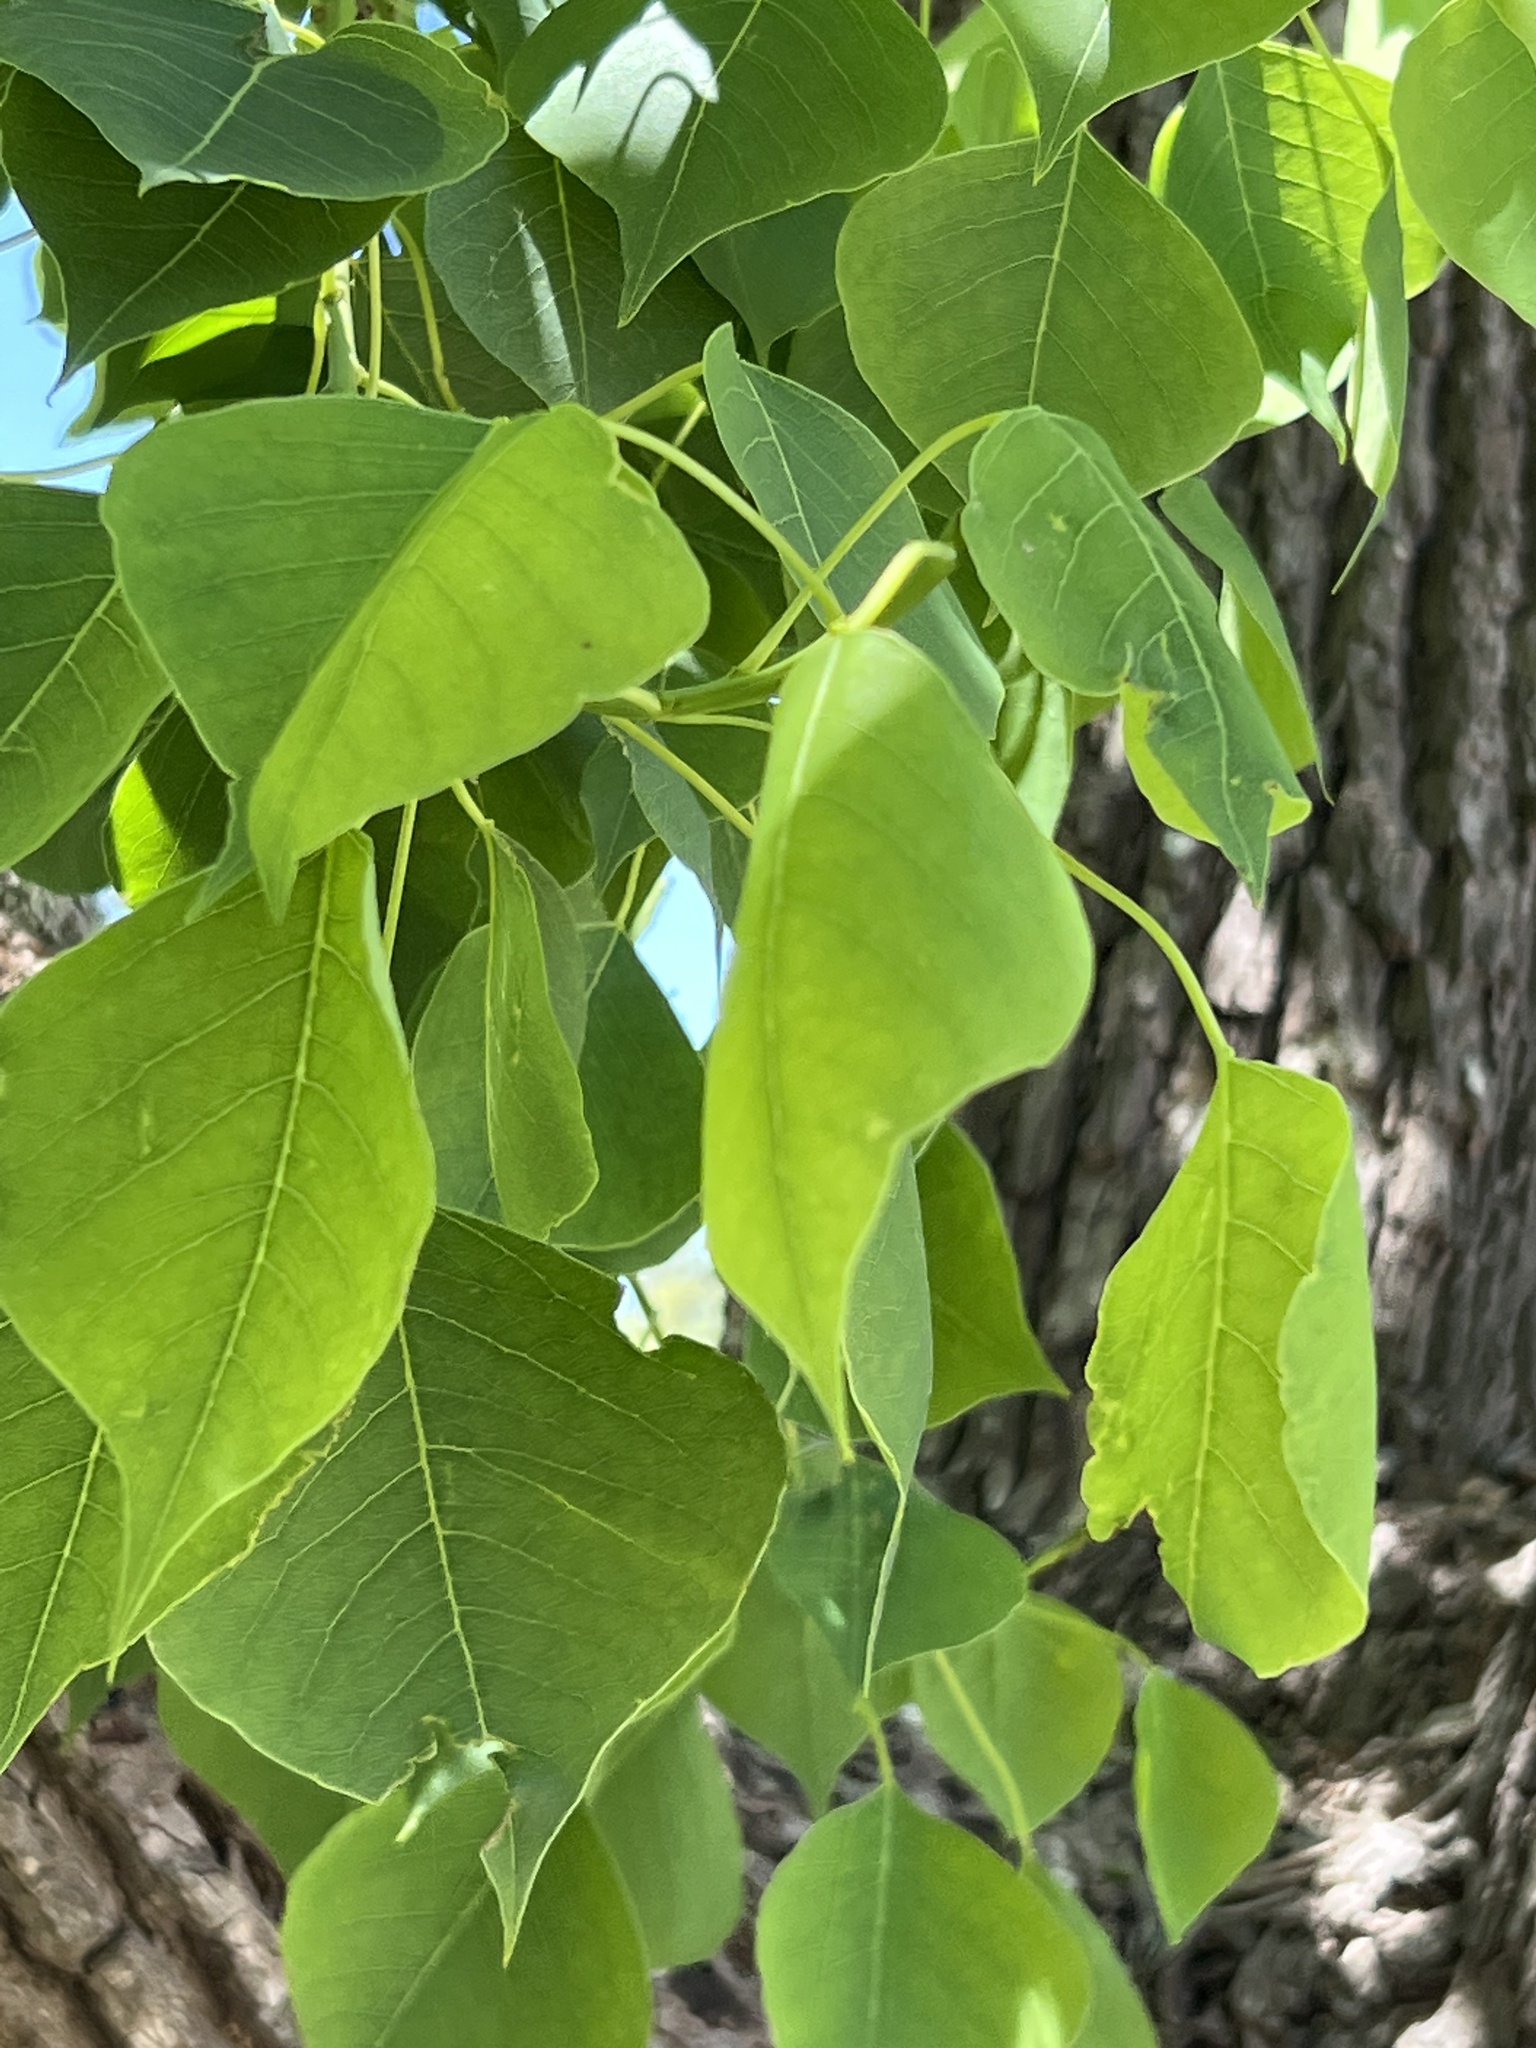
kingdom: Plantae
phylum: Tracheophyta
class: Magnoliopsida
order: Malpighiales
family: Euphorbiaceae
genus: Triadica
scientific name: Triadica sebifera
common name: Chinese tallow
